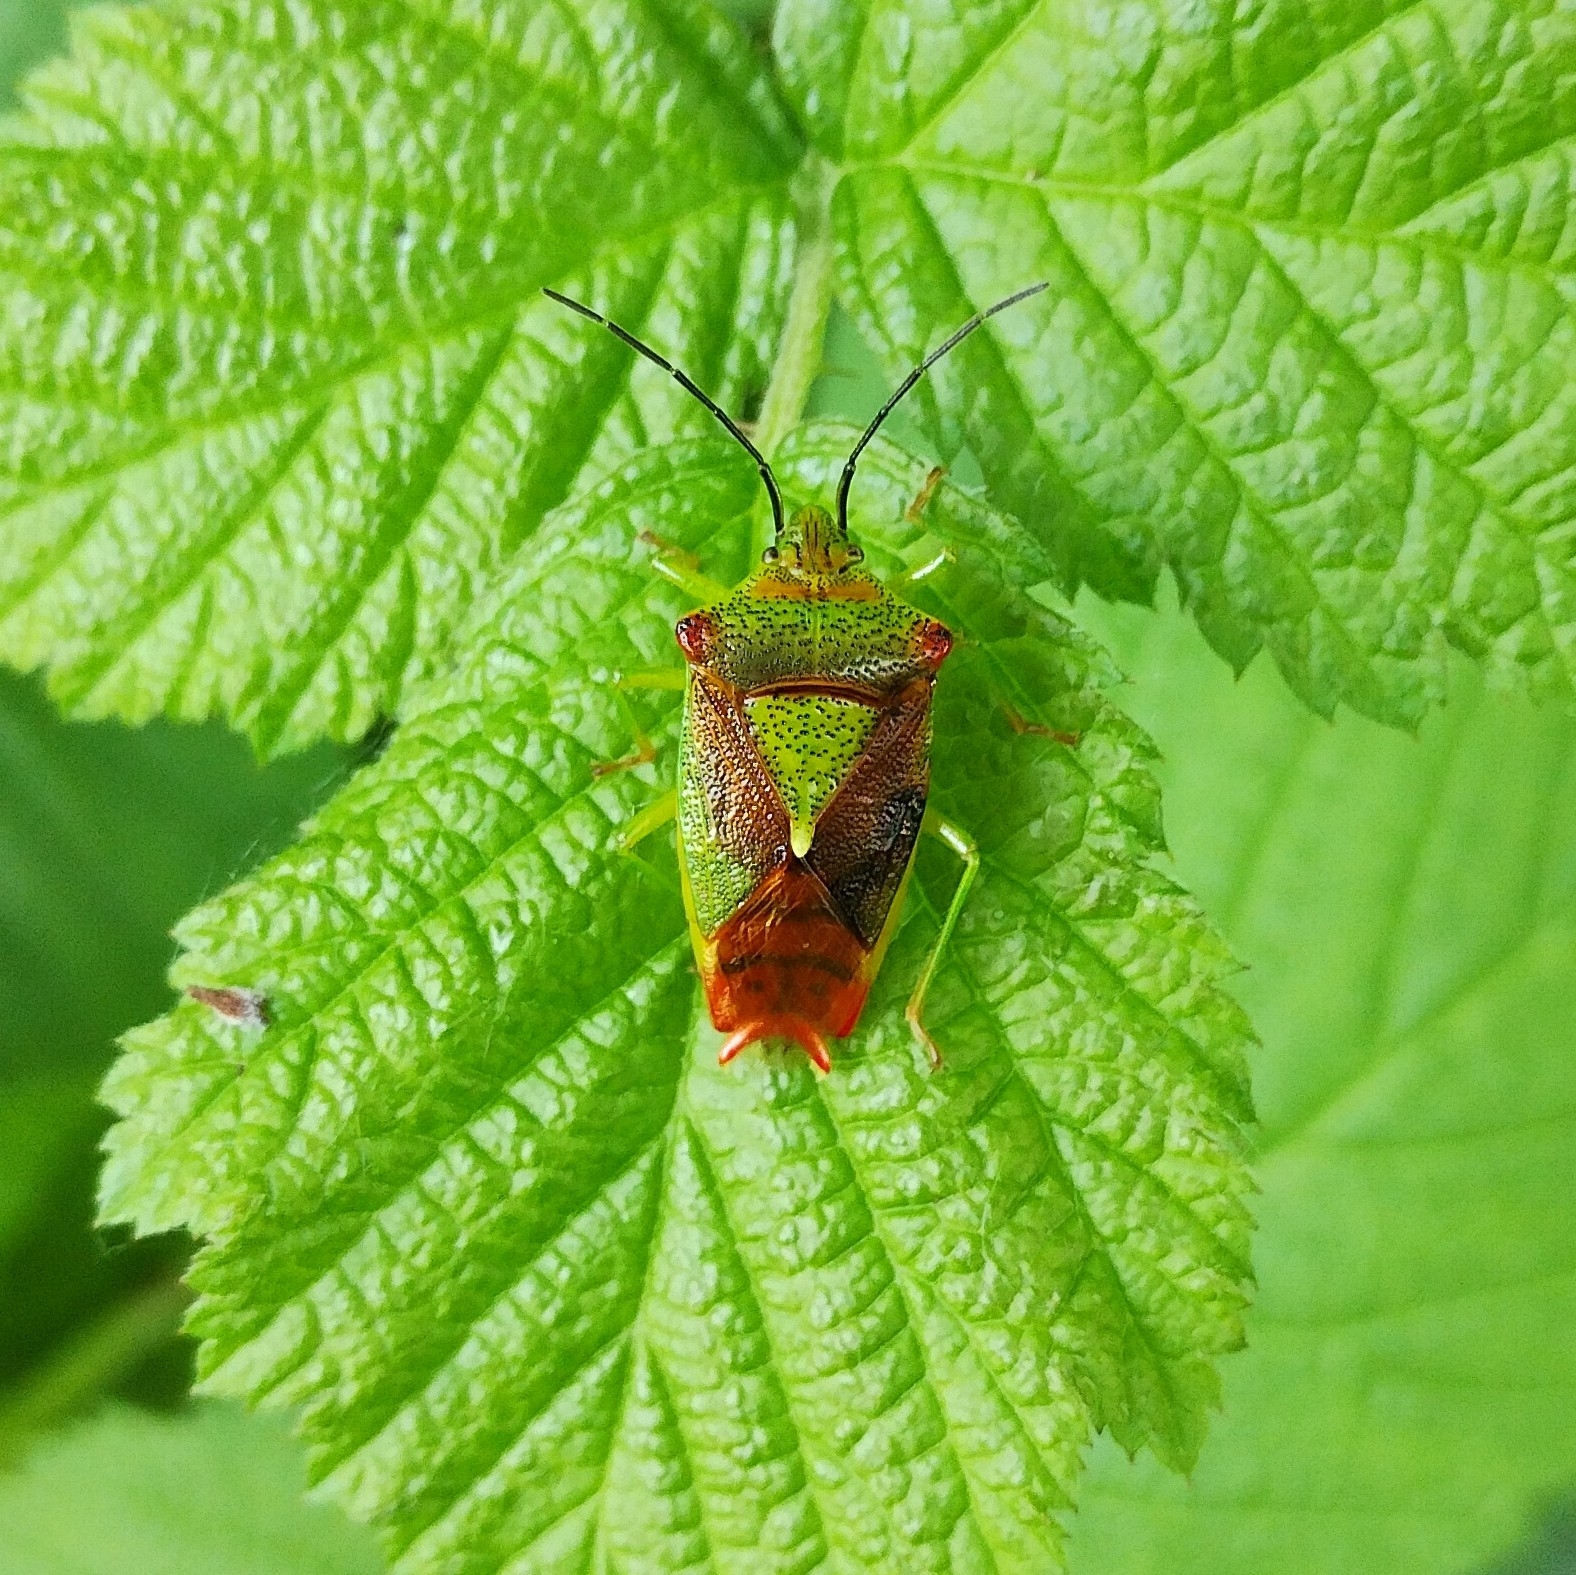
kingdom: Animalia
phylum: Arthropoda
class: Insecta
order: Hemiptera
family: Acanthosomatidae
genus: Acanthosoma
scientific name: Acanthosoma haemorrhoidale
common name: Hawthorn shieldbug
